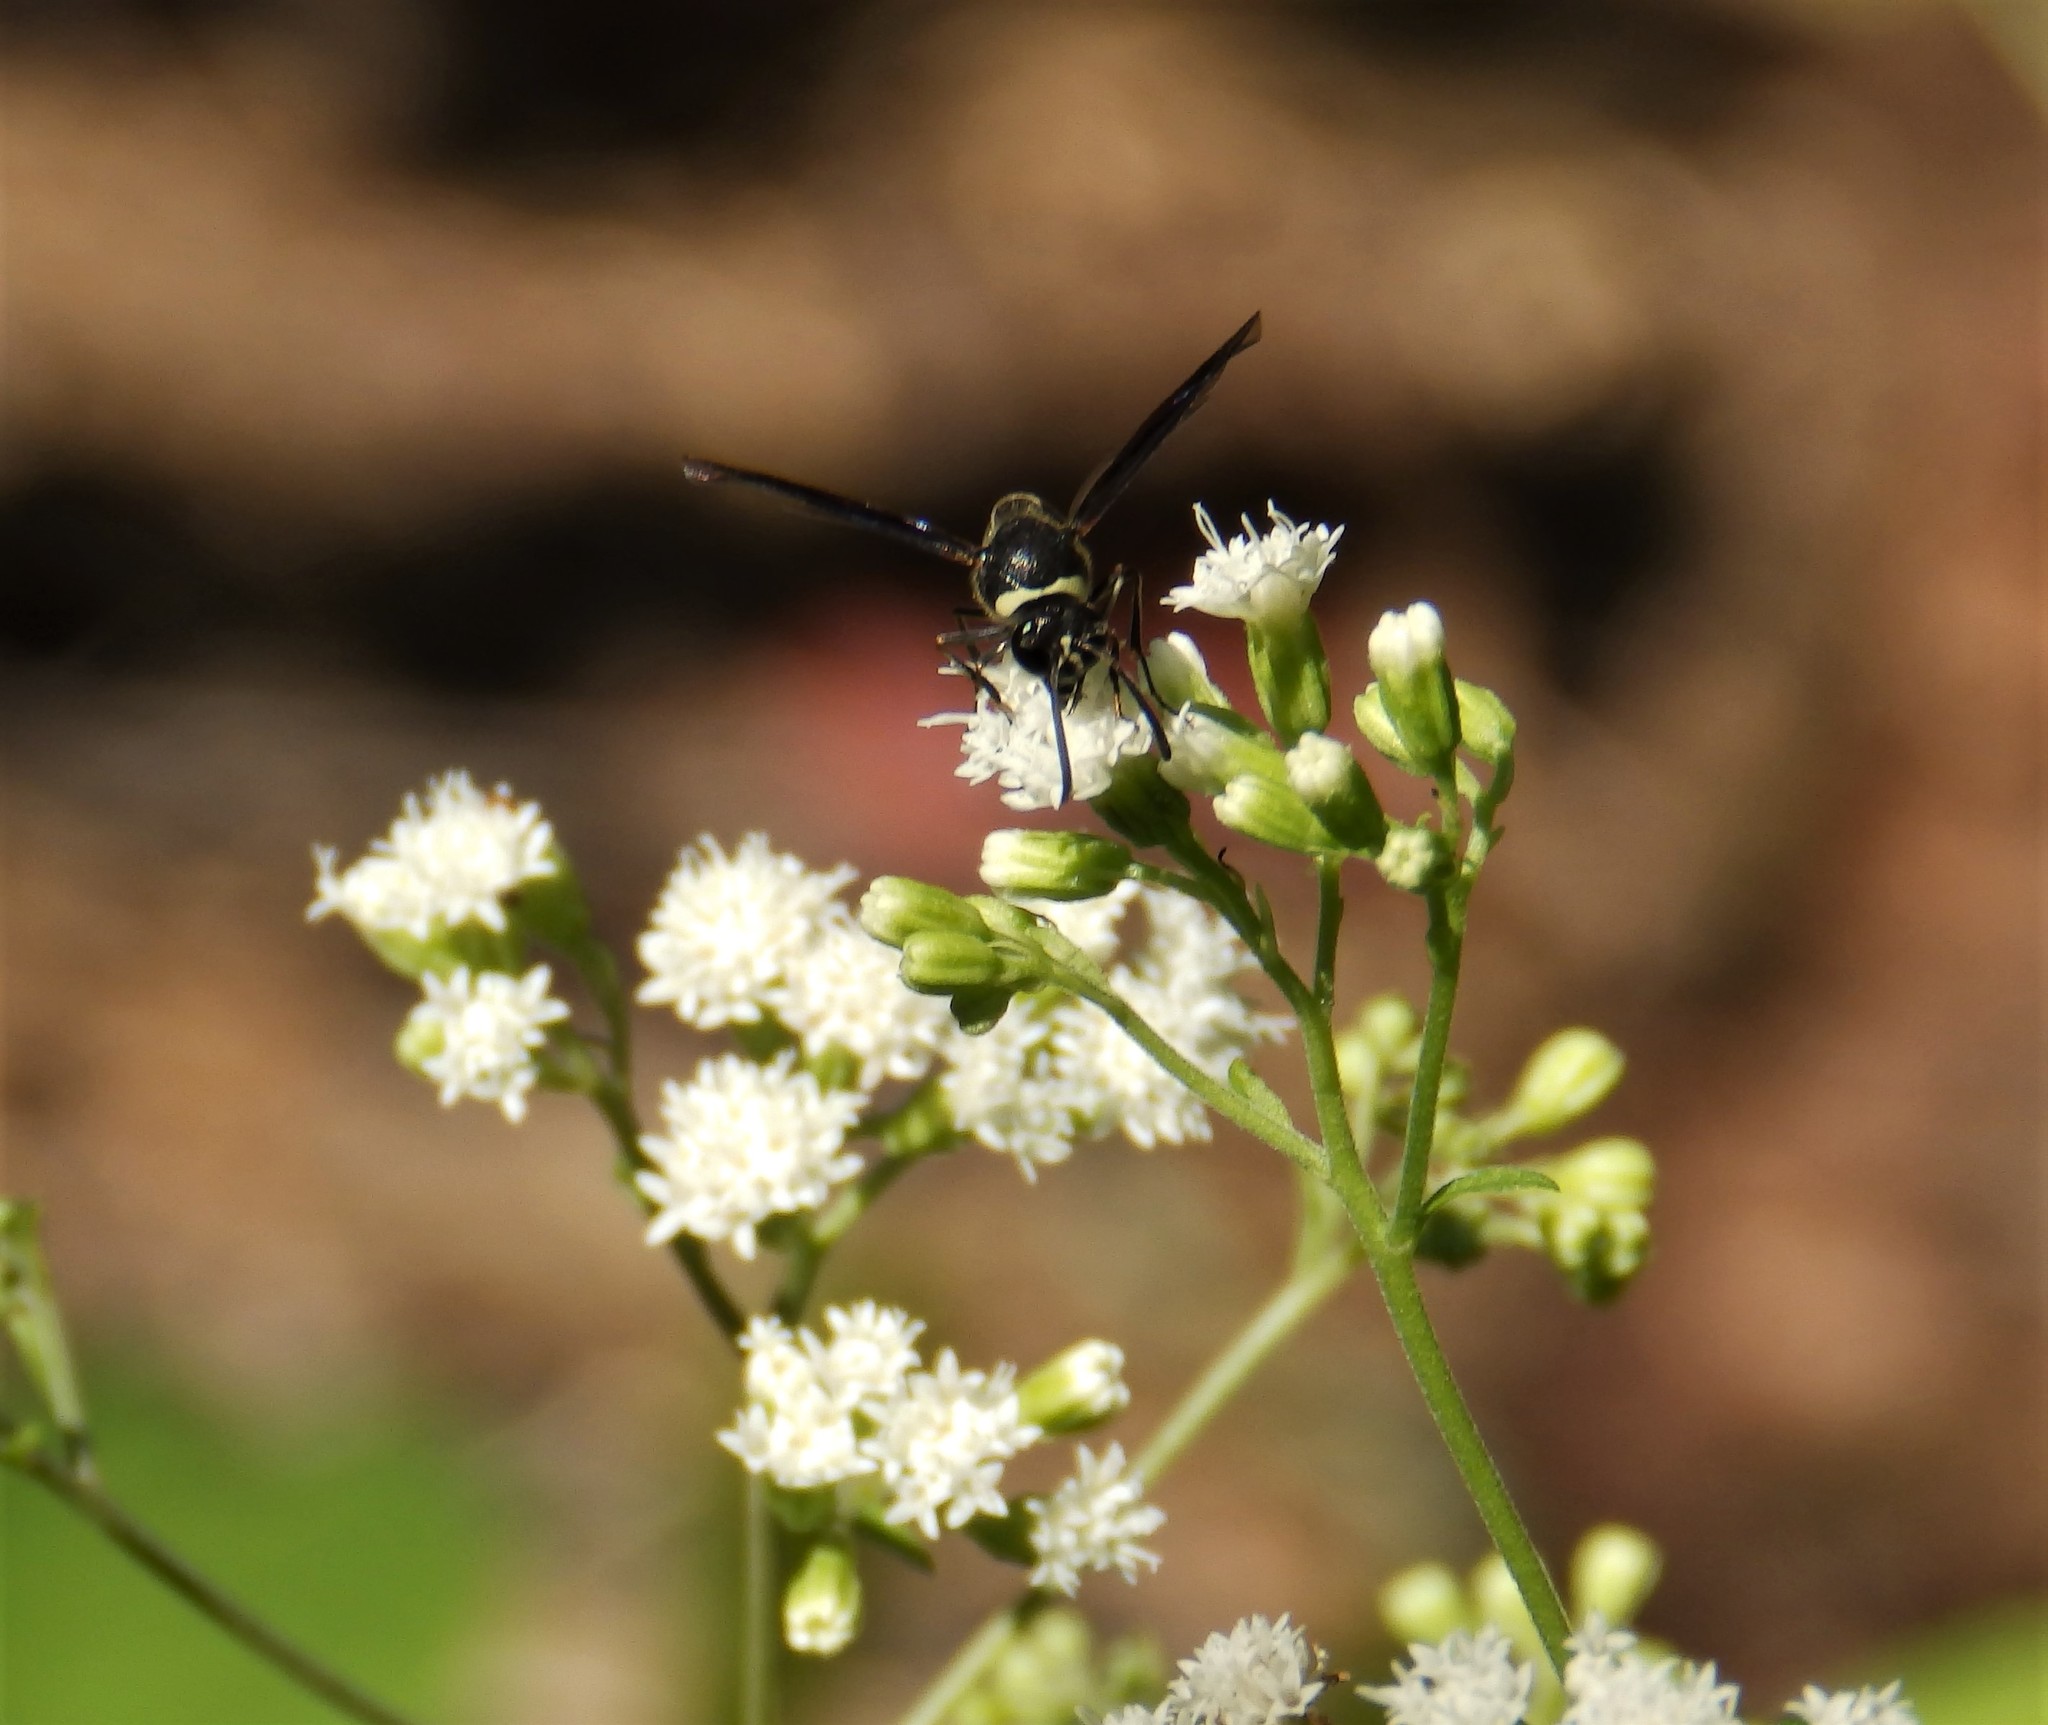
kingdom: Animalia
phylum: Arthropoda
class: Insecta
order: Hymenoptera
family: Vespidae
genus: Eumenes
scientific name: Eumenes fraternus
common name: Fraternal potter wasp
